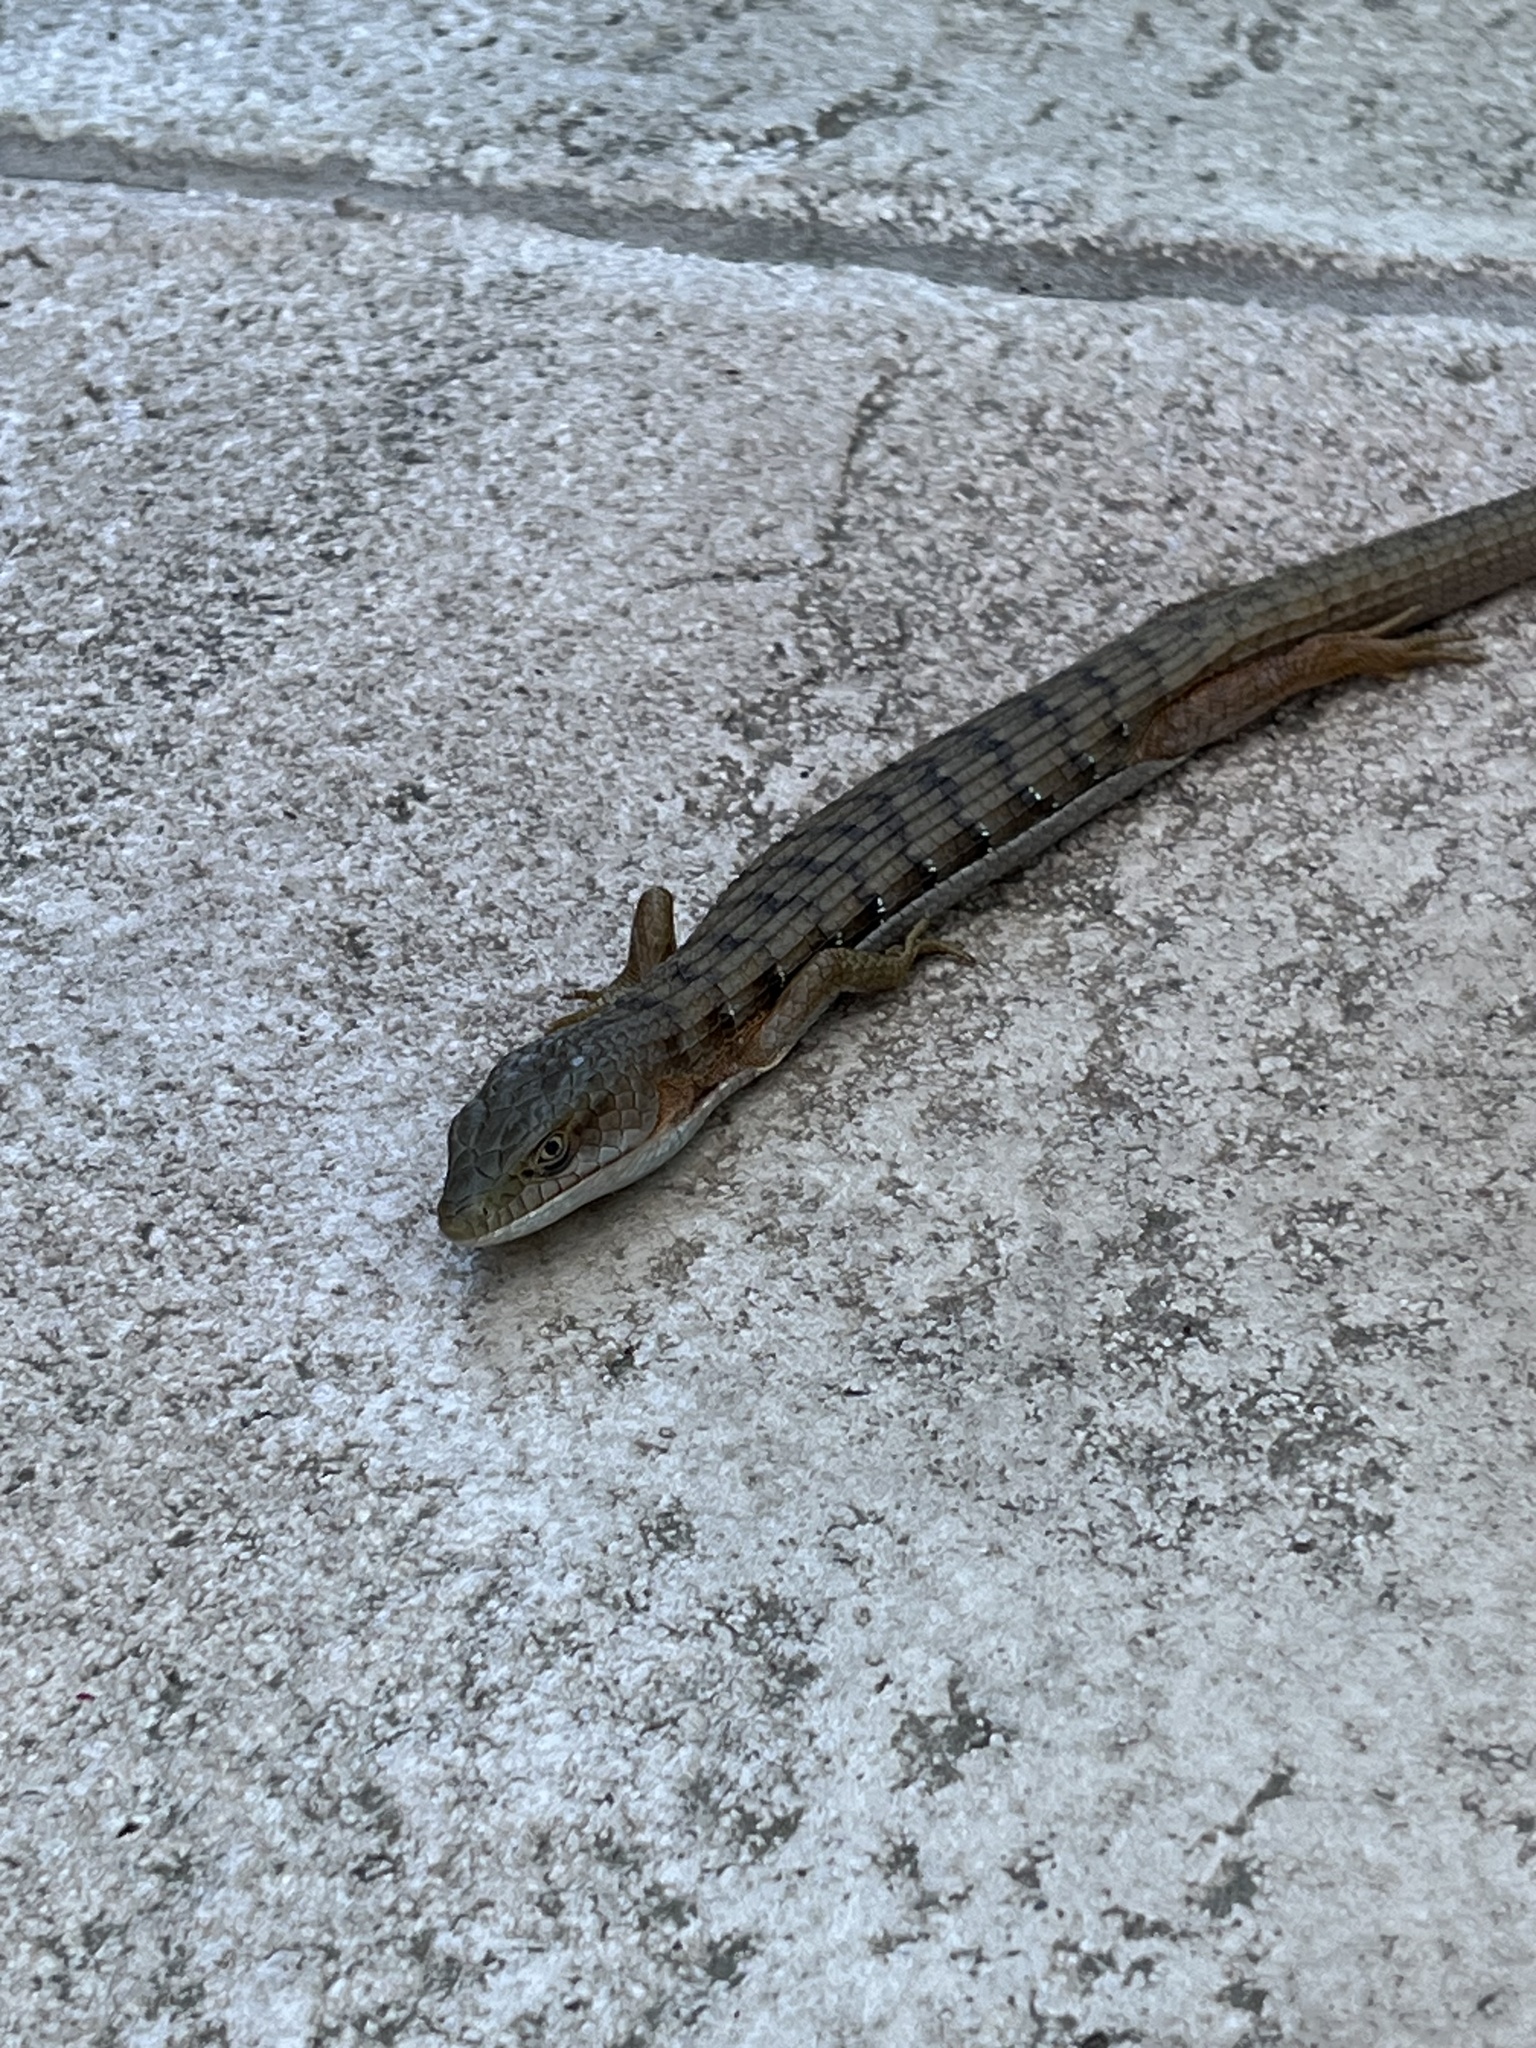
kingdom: Animalia
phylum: Chordata
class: Squamata
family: Anguidae
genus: Elgaria
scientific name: Elgaria multicarinata
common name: Southern alligator lizard
